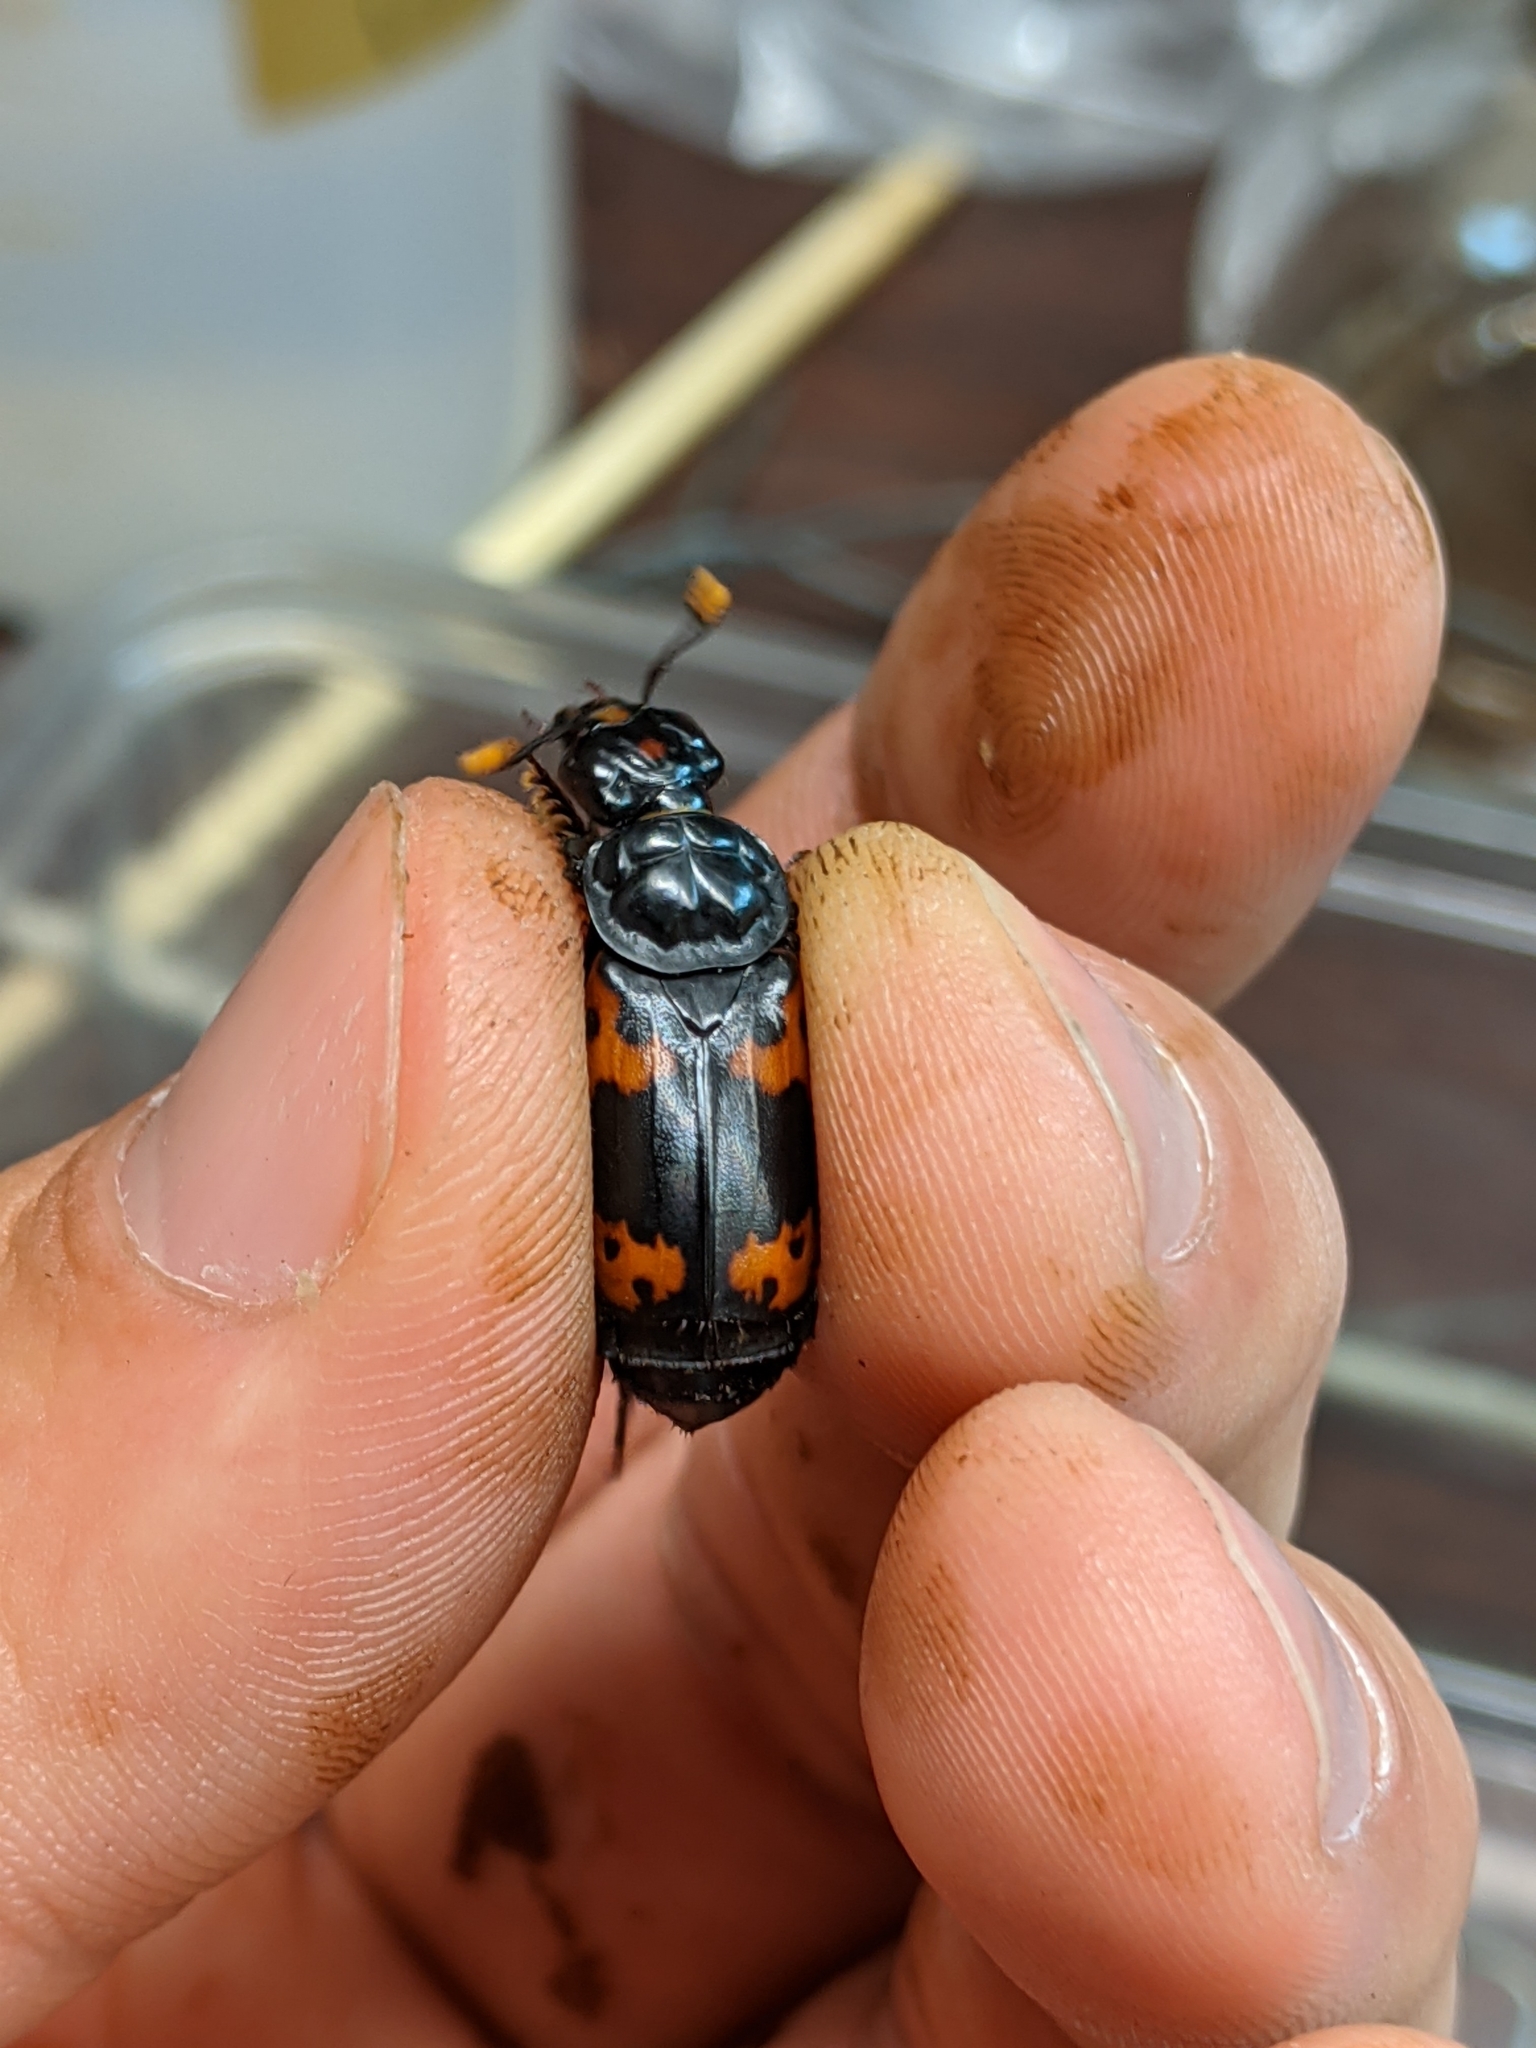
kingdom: Animalia
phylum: Arthropoda
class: Insecta
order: Coleoptera
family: Staphylinidae
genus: Nicrophorus
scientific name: Nicrophorus nepalensis
